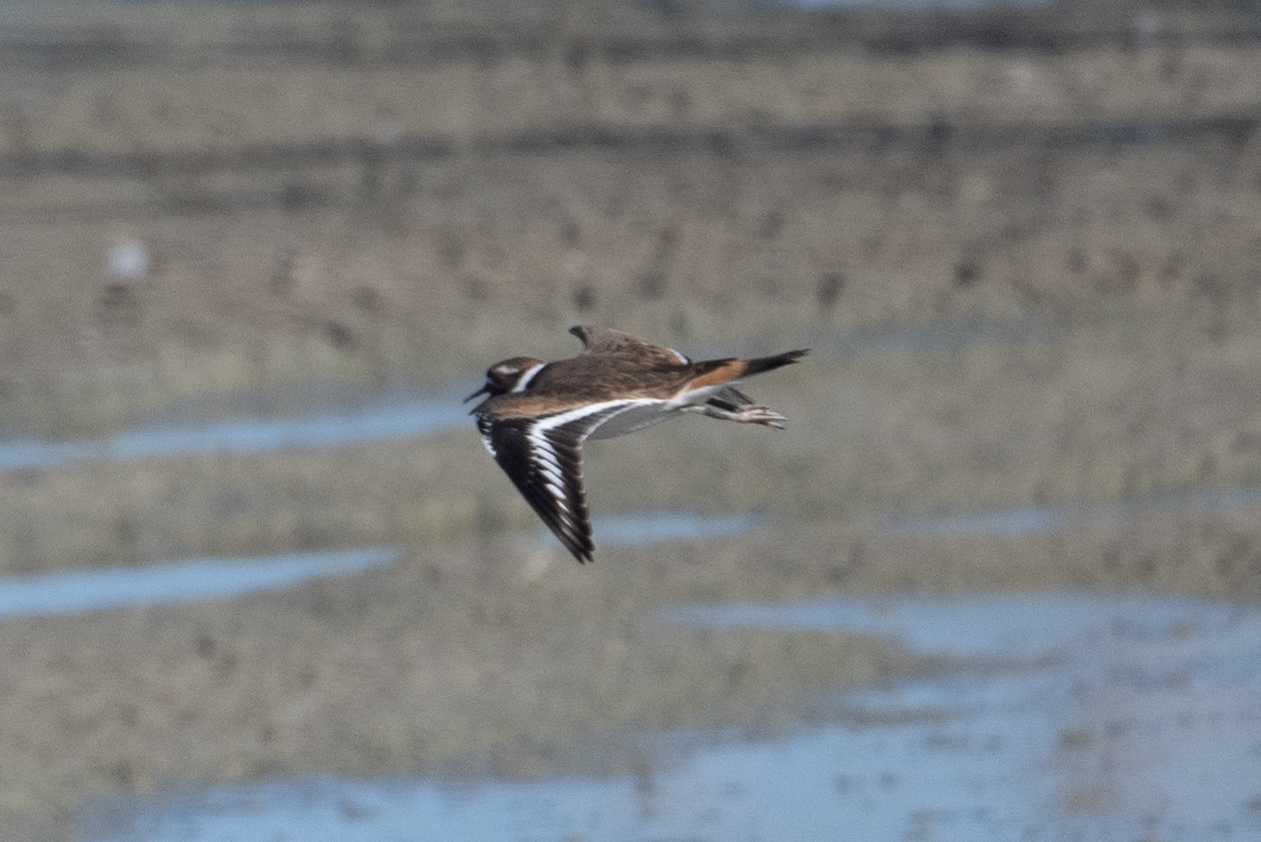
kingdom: Animalia
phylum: Chordata
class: Aves
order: Charadriiformes
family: Charadriidae
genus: Charadrius
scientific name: Charadrius vociferus
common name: Killdeer
